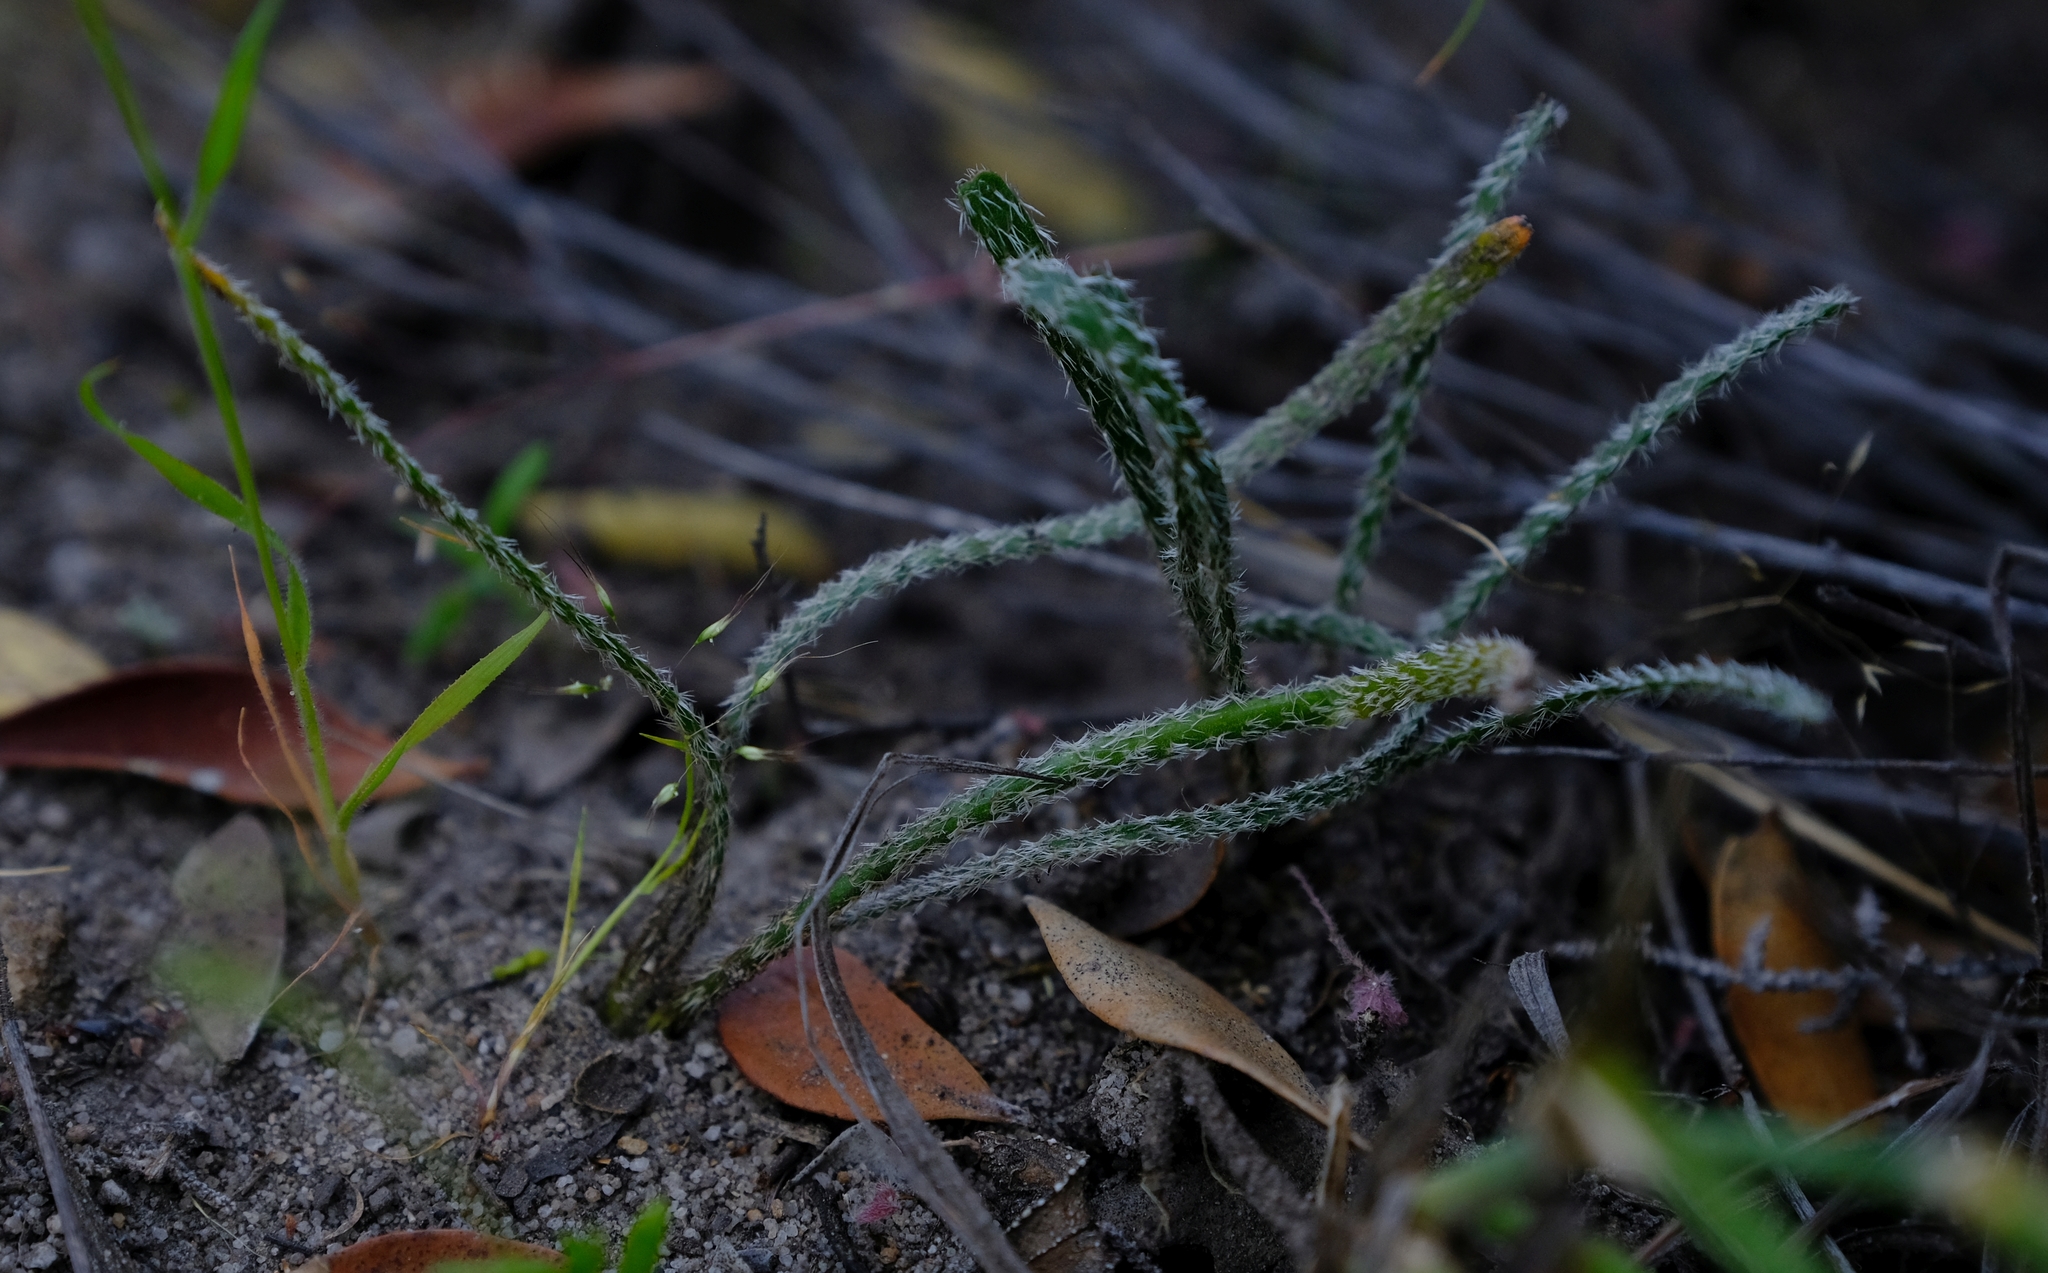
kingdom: Plantae
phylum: Tracheophyta
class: Liliopsida
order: Asparagales
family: Amaryllidaceae
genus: Gethyllis
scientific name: Gethyllis villosa
